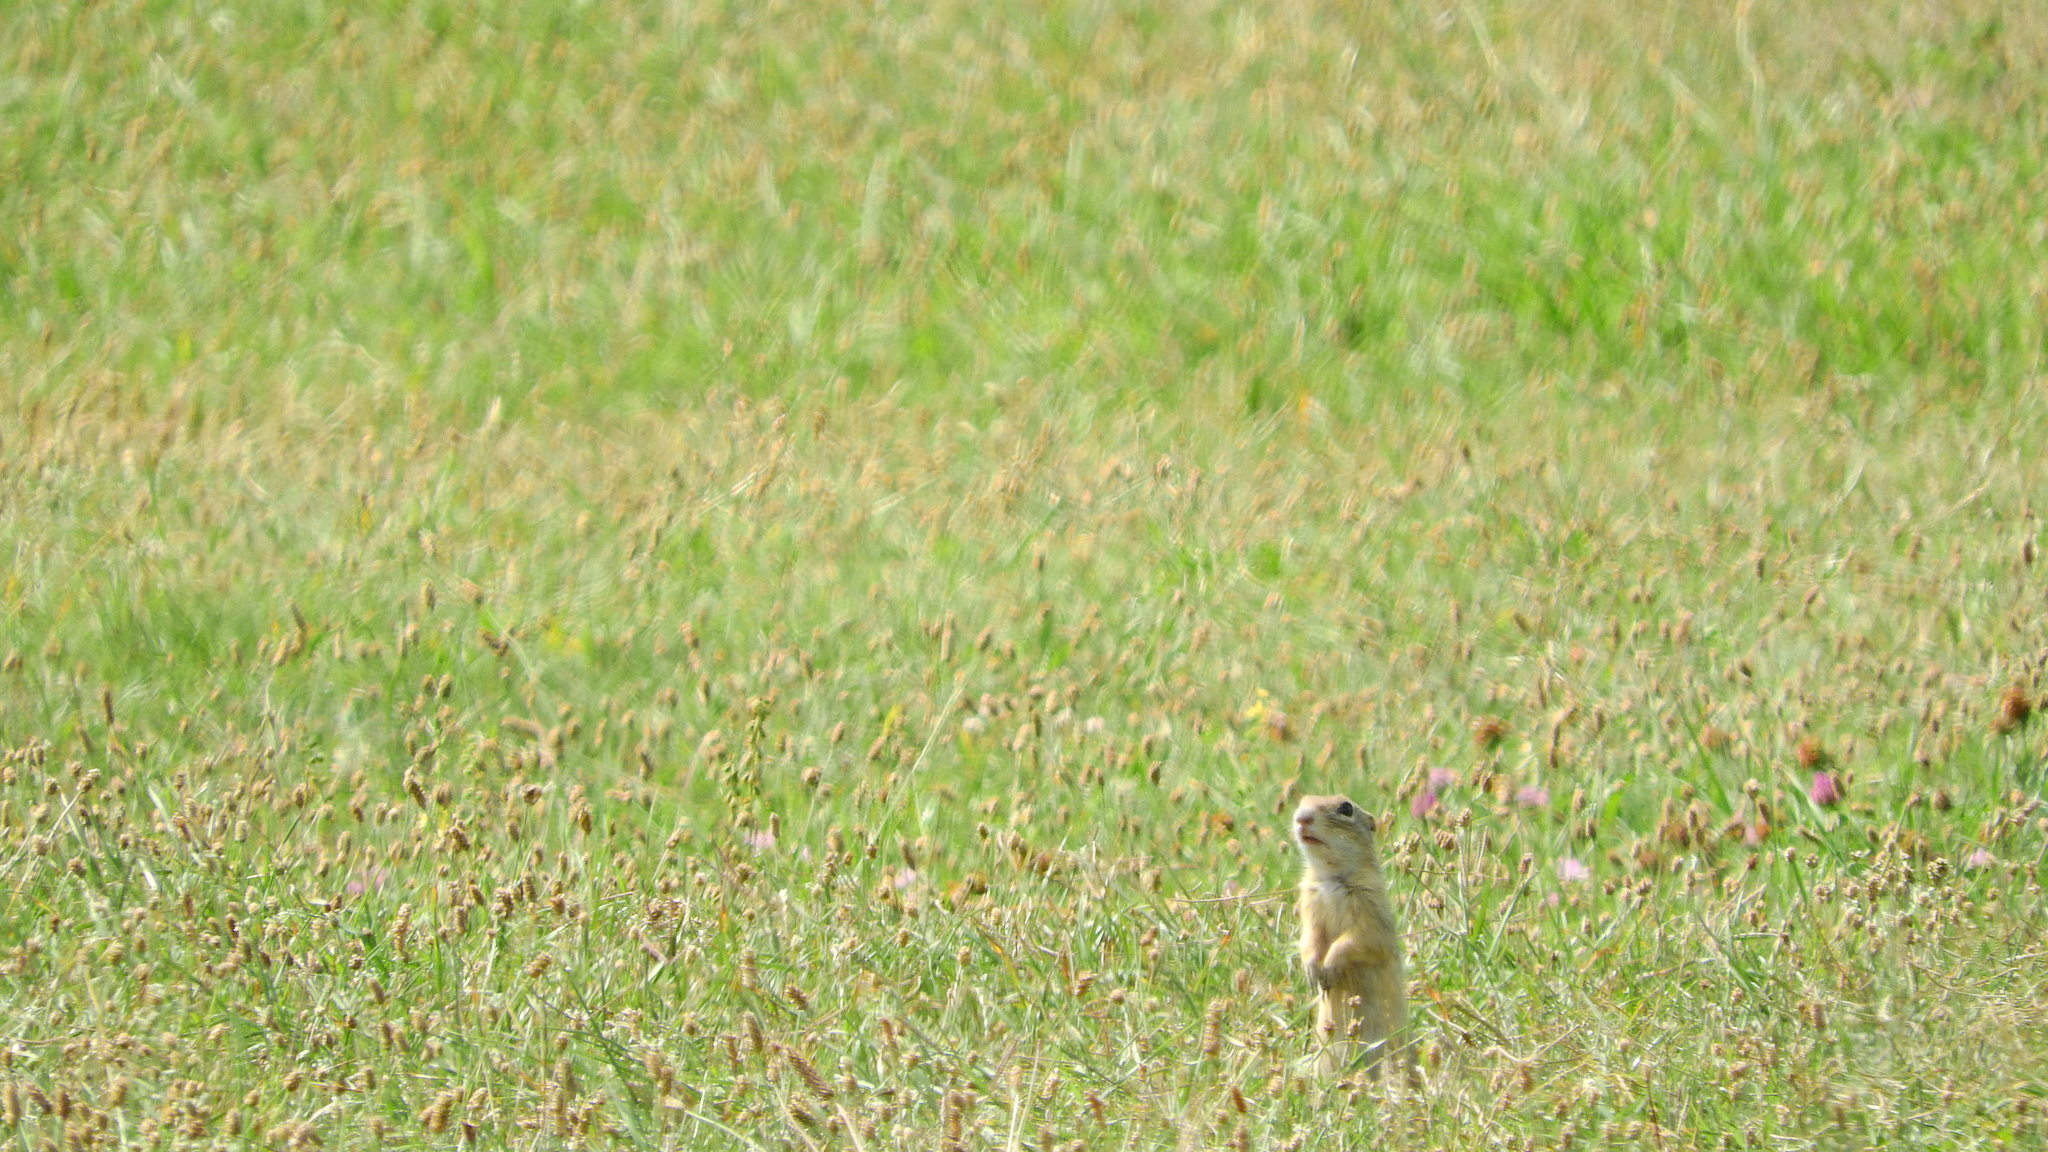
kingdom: Animalia
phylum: Chordata
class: Mammalia
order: Rodentia
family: Sciuridae
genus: Spermophilus
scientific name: Spermophilus citellus
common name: European ground squirrel
